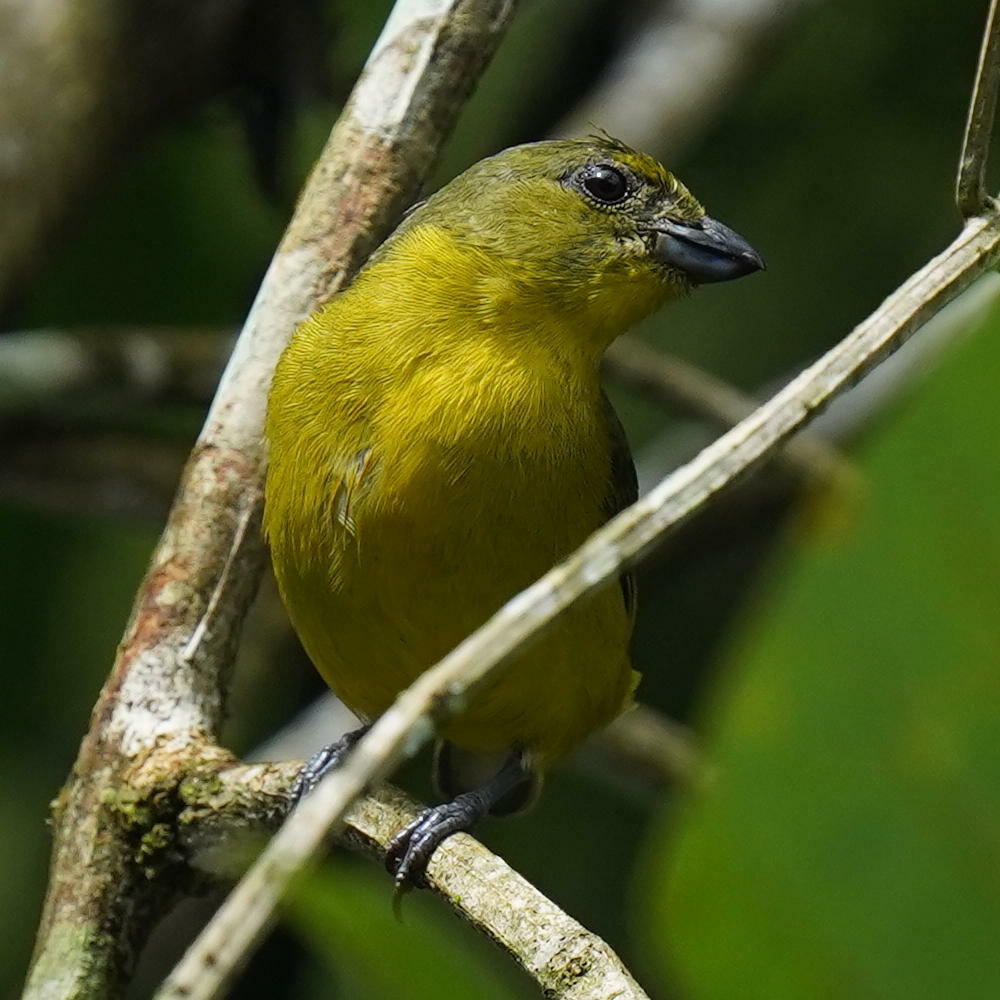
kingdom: Animalia
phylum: Chordata
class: Aves
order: Passeriformes
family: Fringillidae
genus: Euphonia
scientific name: Euphonia laniirostris
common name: Thick-billed euphonia
